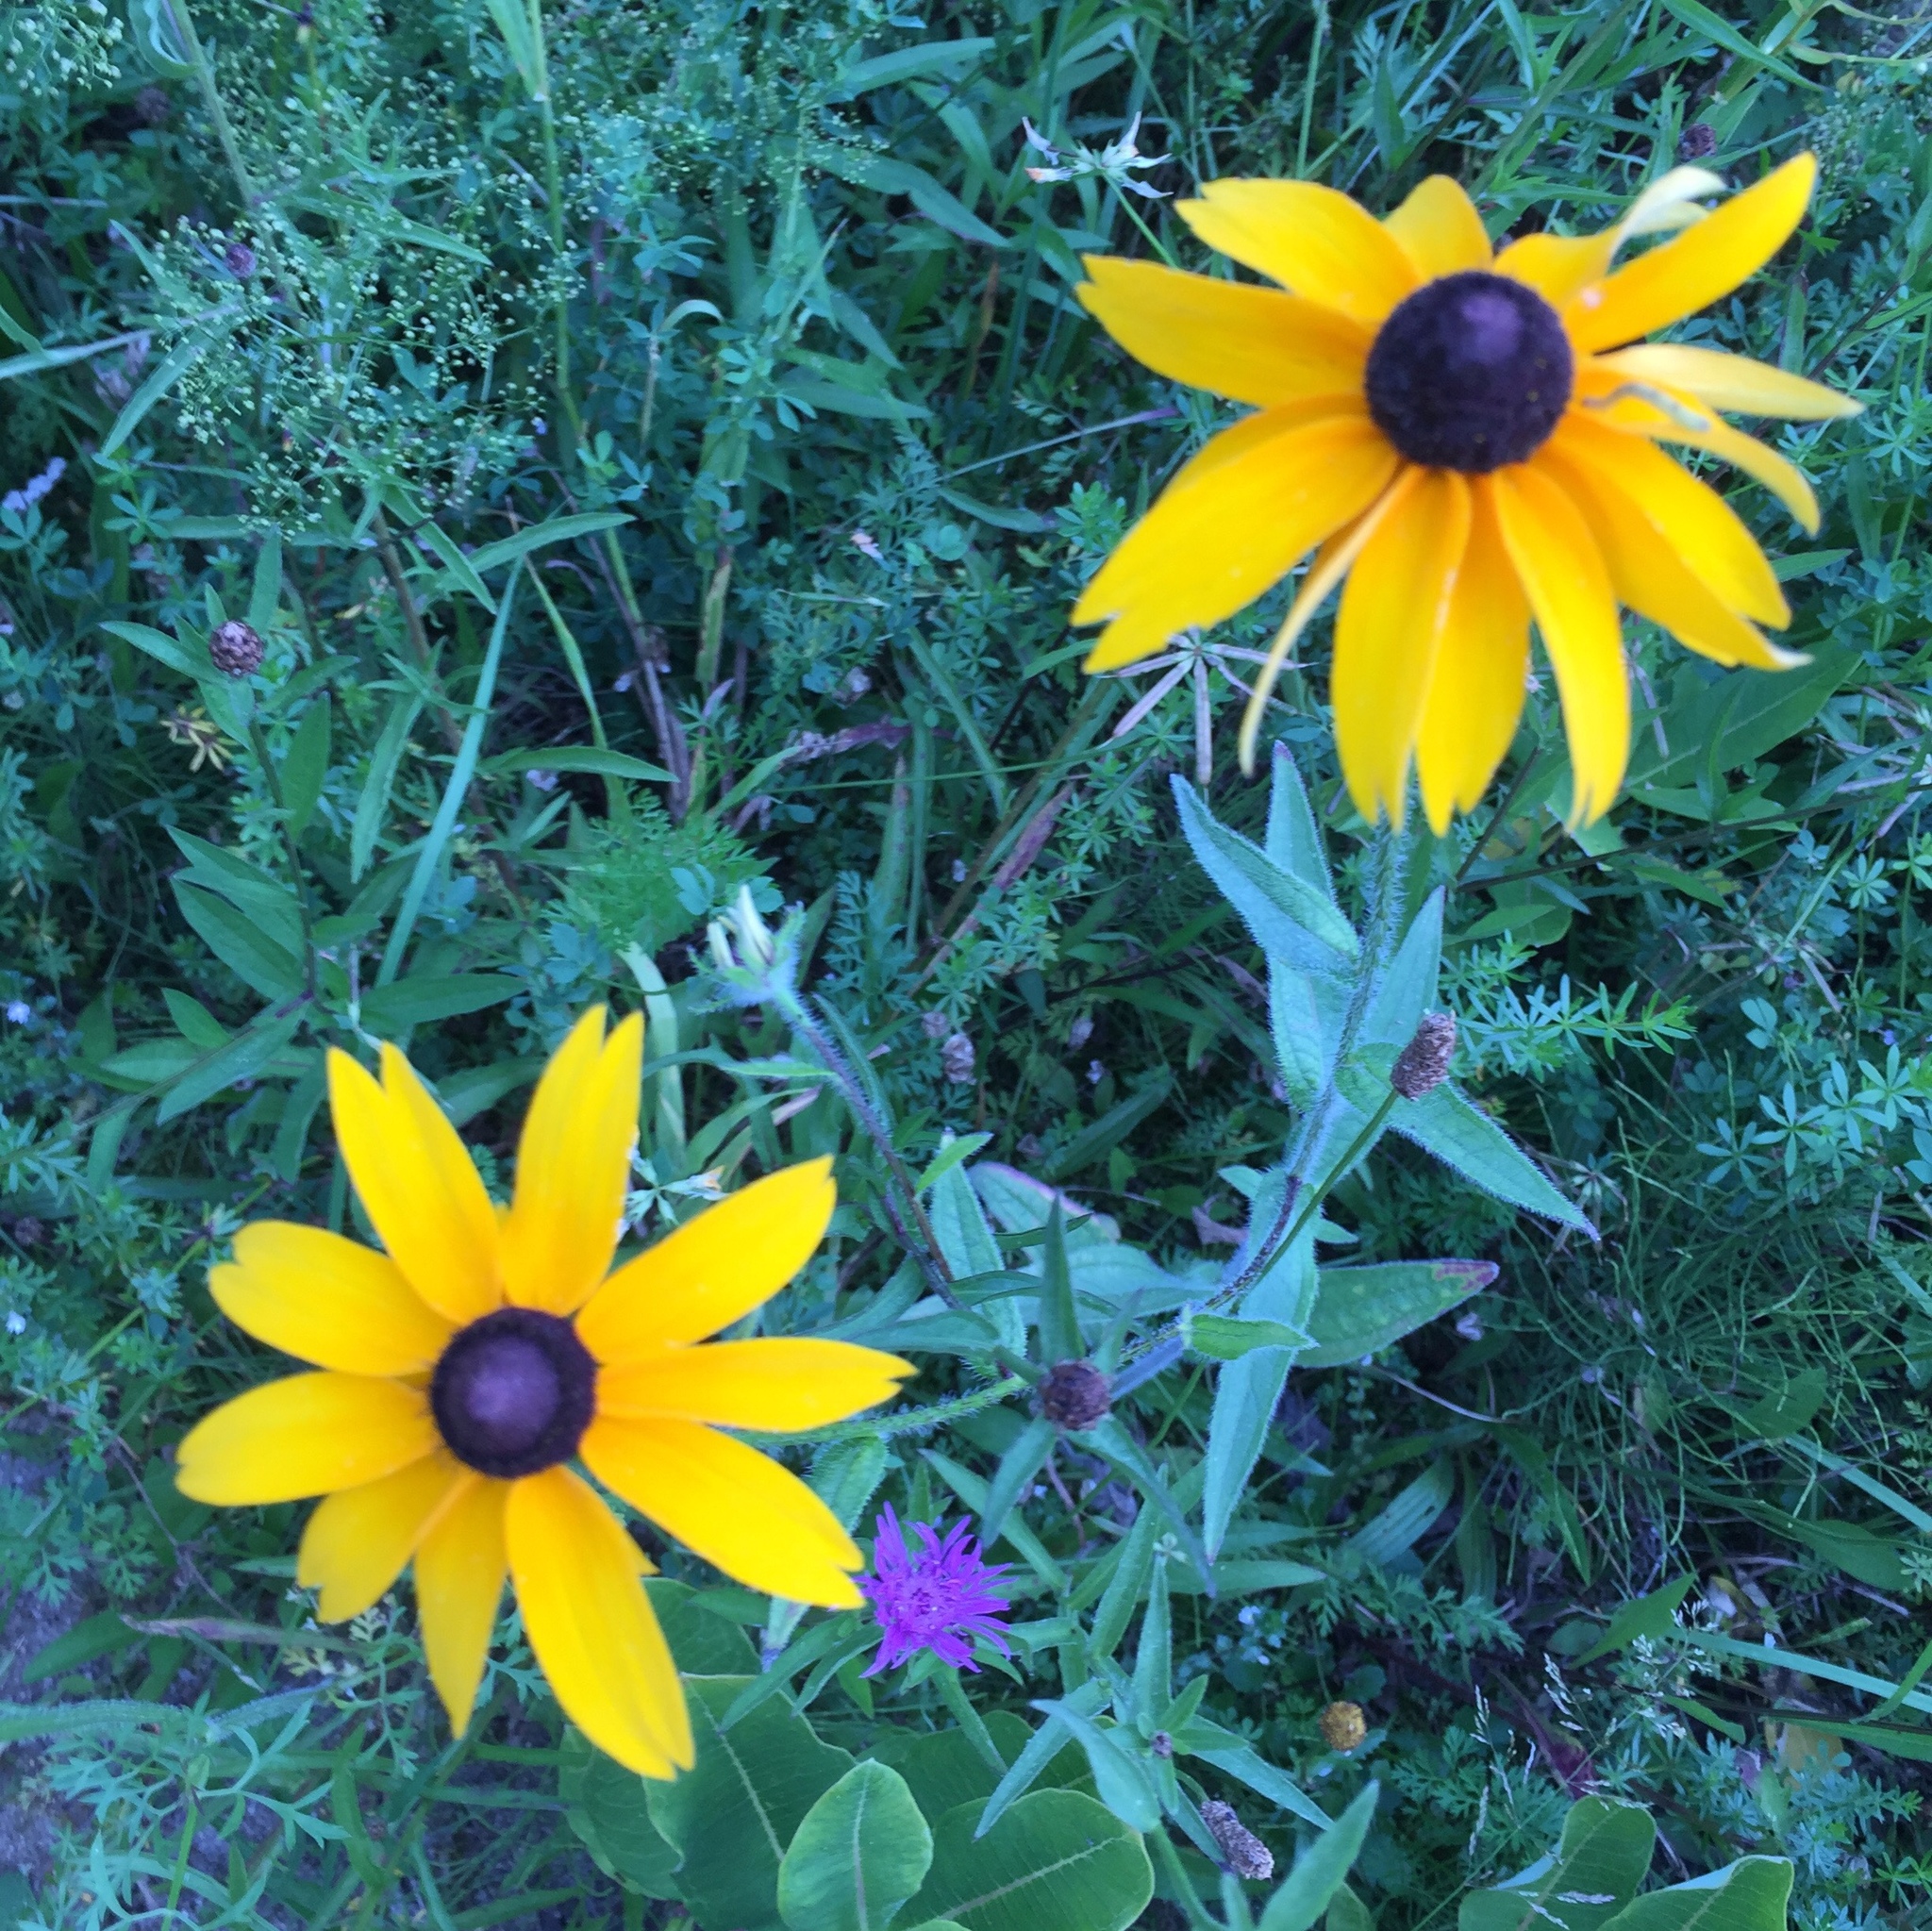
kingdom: Plantae
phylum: Tracheophyta
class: Magnoliopsida
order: Asterales
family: Asteraceae
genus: Rudbeckia
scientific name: Rudbeckia hirta
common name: Black-eyed-susan
